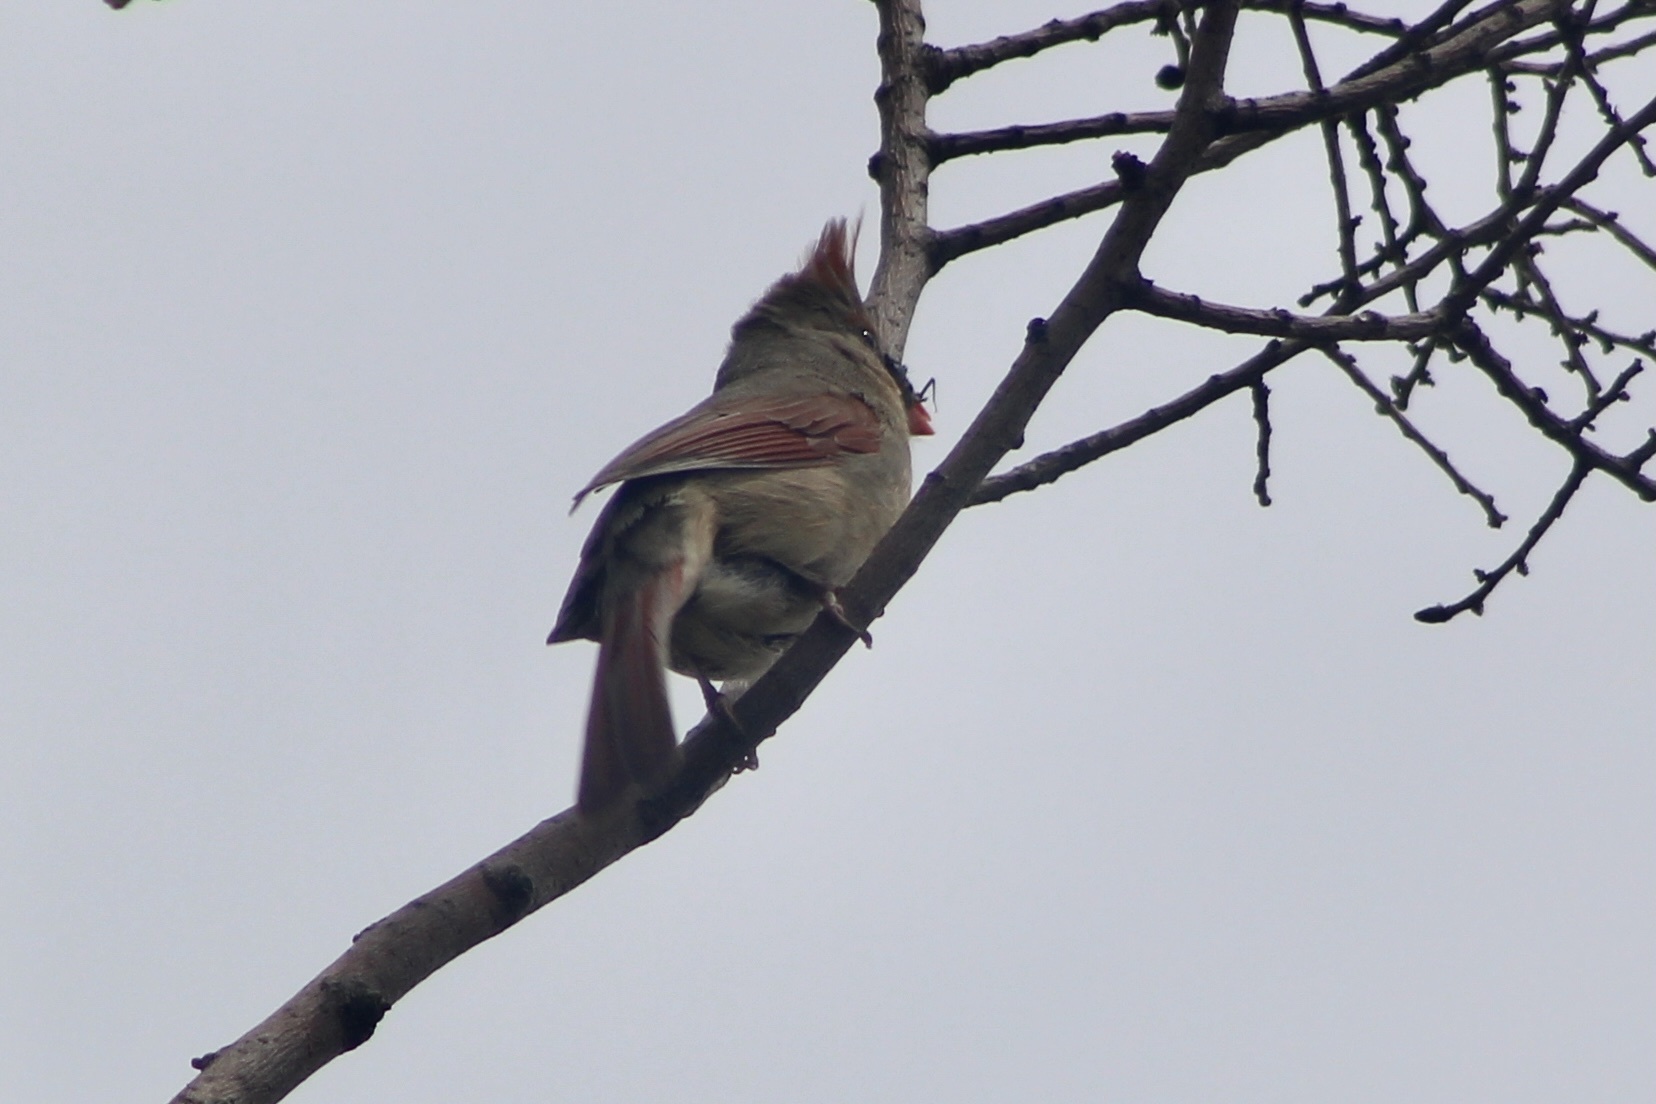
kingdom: Animalia
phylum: Chordata
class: Aves
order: Passeriformes
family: Cardinalidae
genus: Cardinalis
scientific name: Cardinalis cardinalis
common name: Northern cardinal
